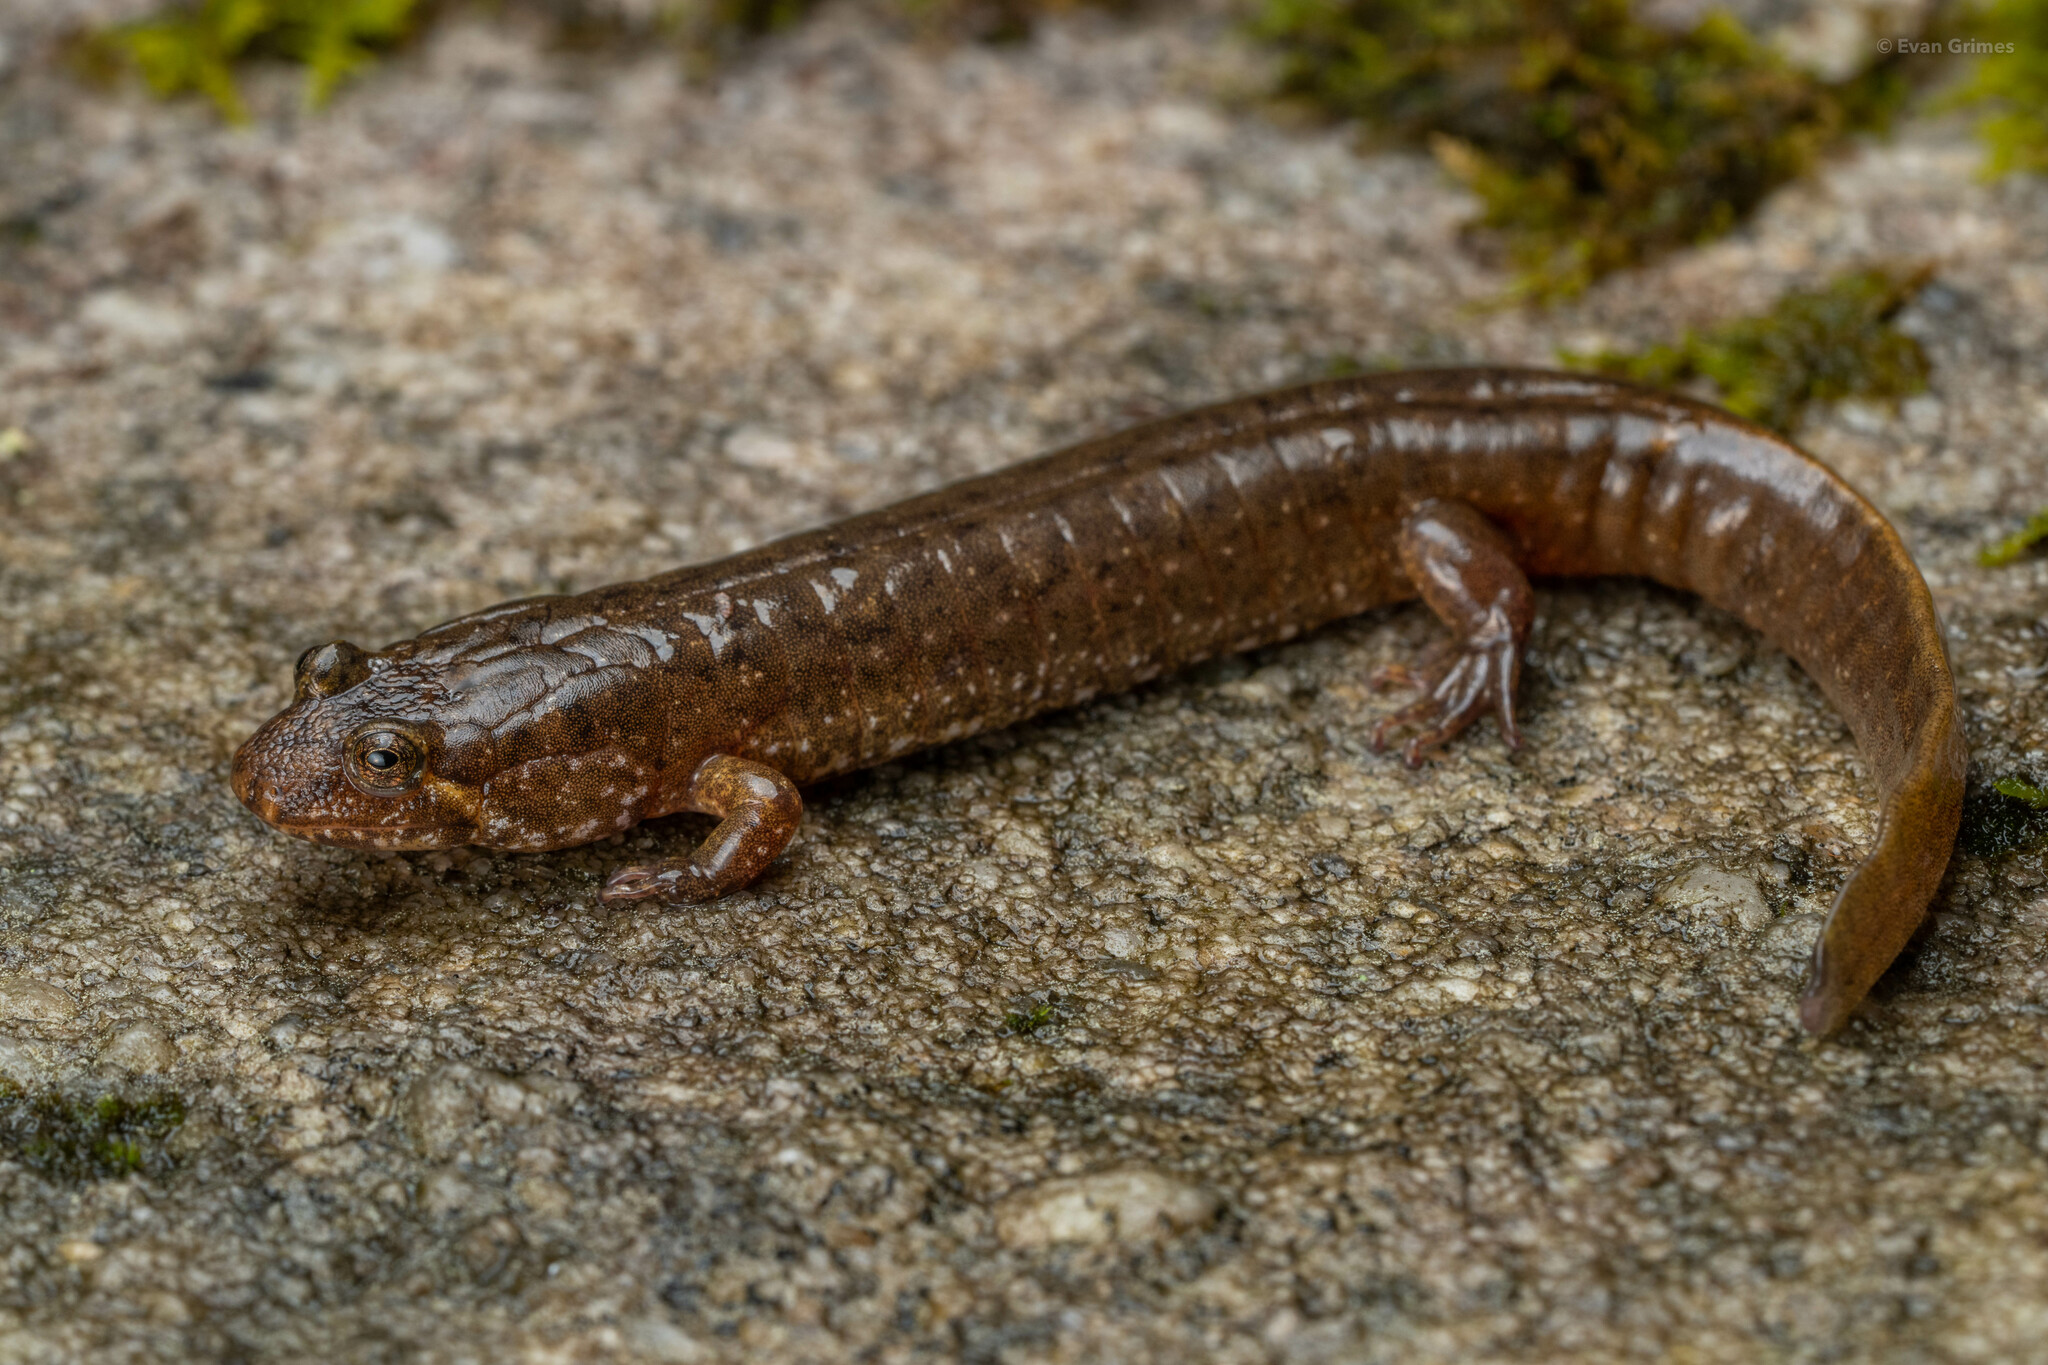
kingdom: Animalia
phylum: Chordata
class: Amphibia
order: Caudata
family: Plethodontidae
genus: Desmognathus
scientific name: Desmognathus
